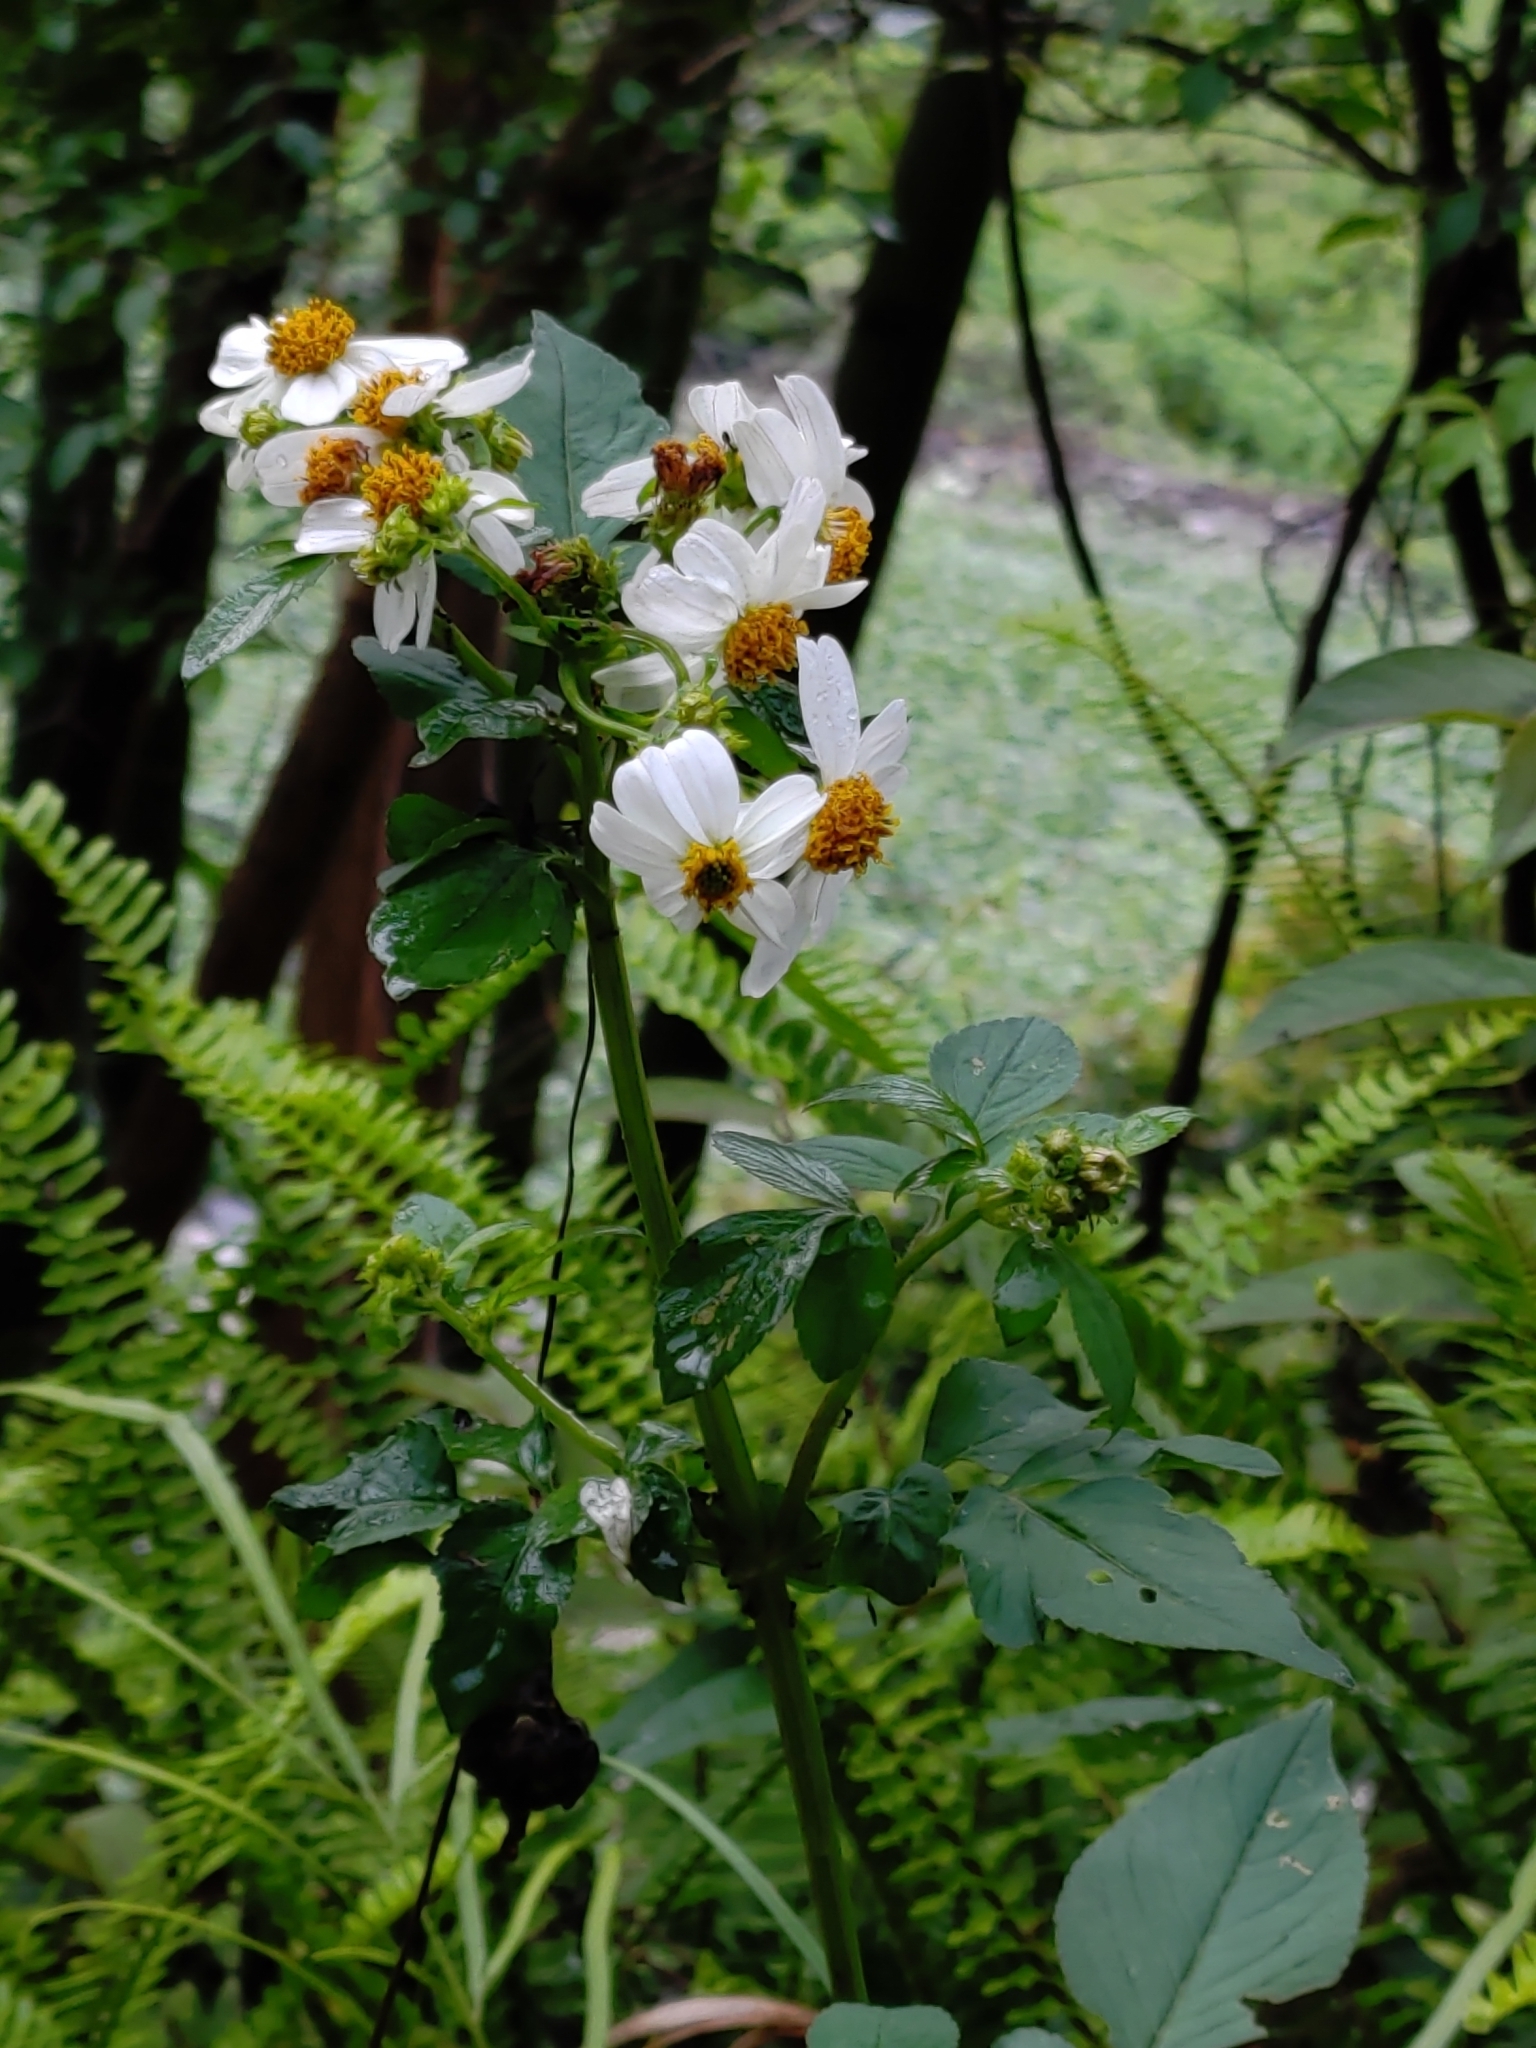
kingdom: Plantae
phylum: Tracheophyta
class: Magnoliopsida
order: Asterales
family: Asteraceae
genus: Bidens
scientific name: Bidens alba
